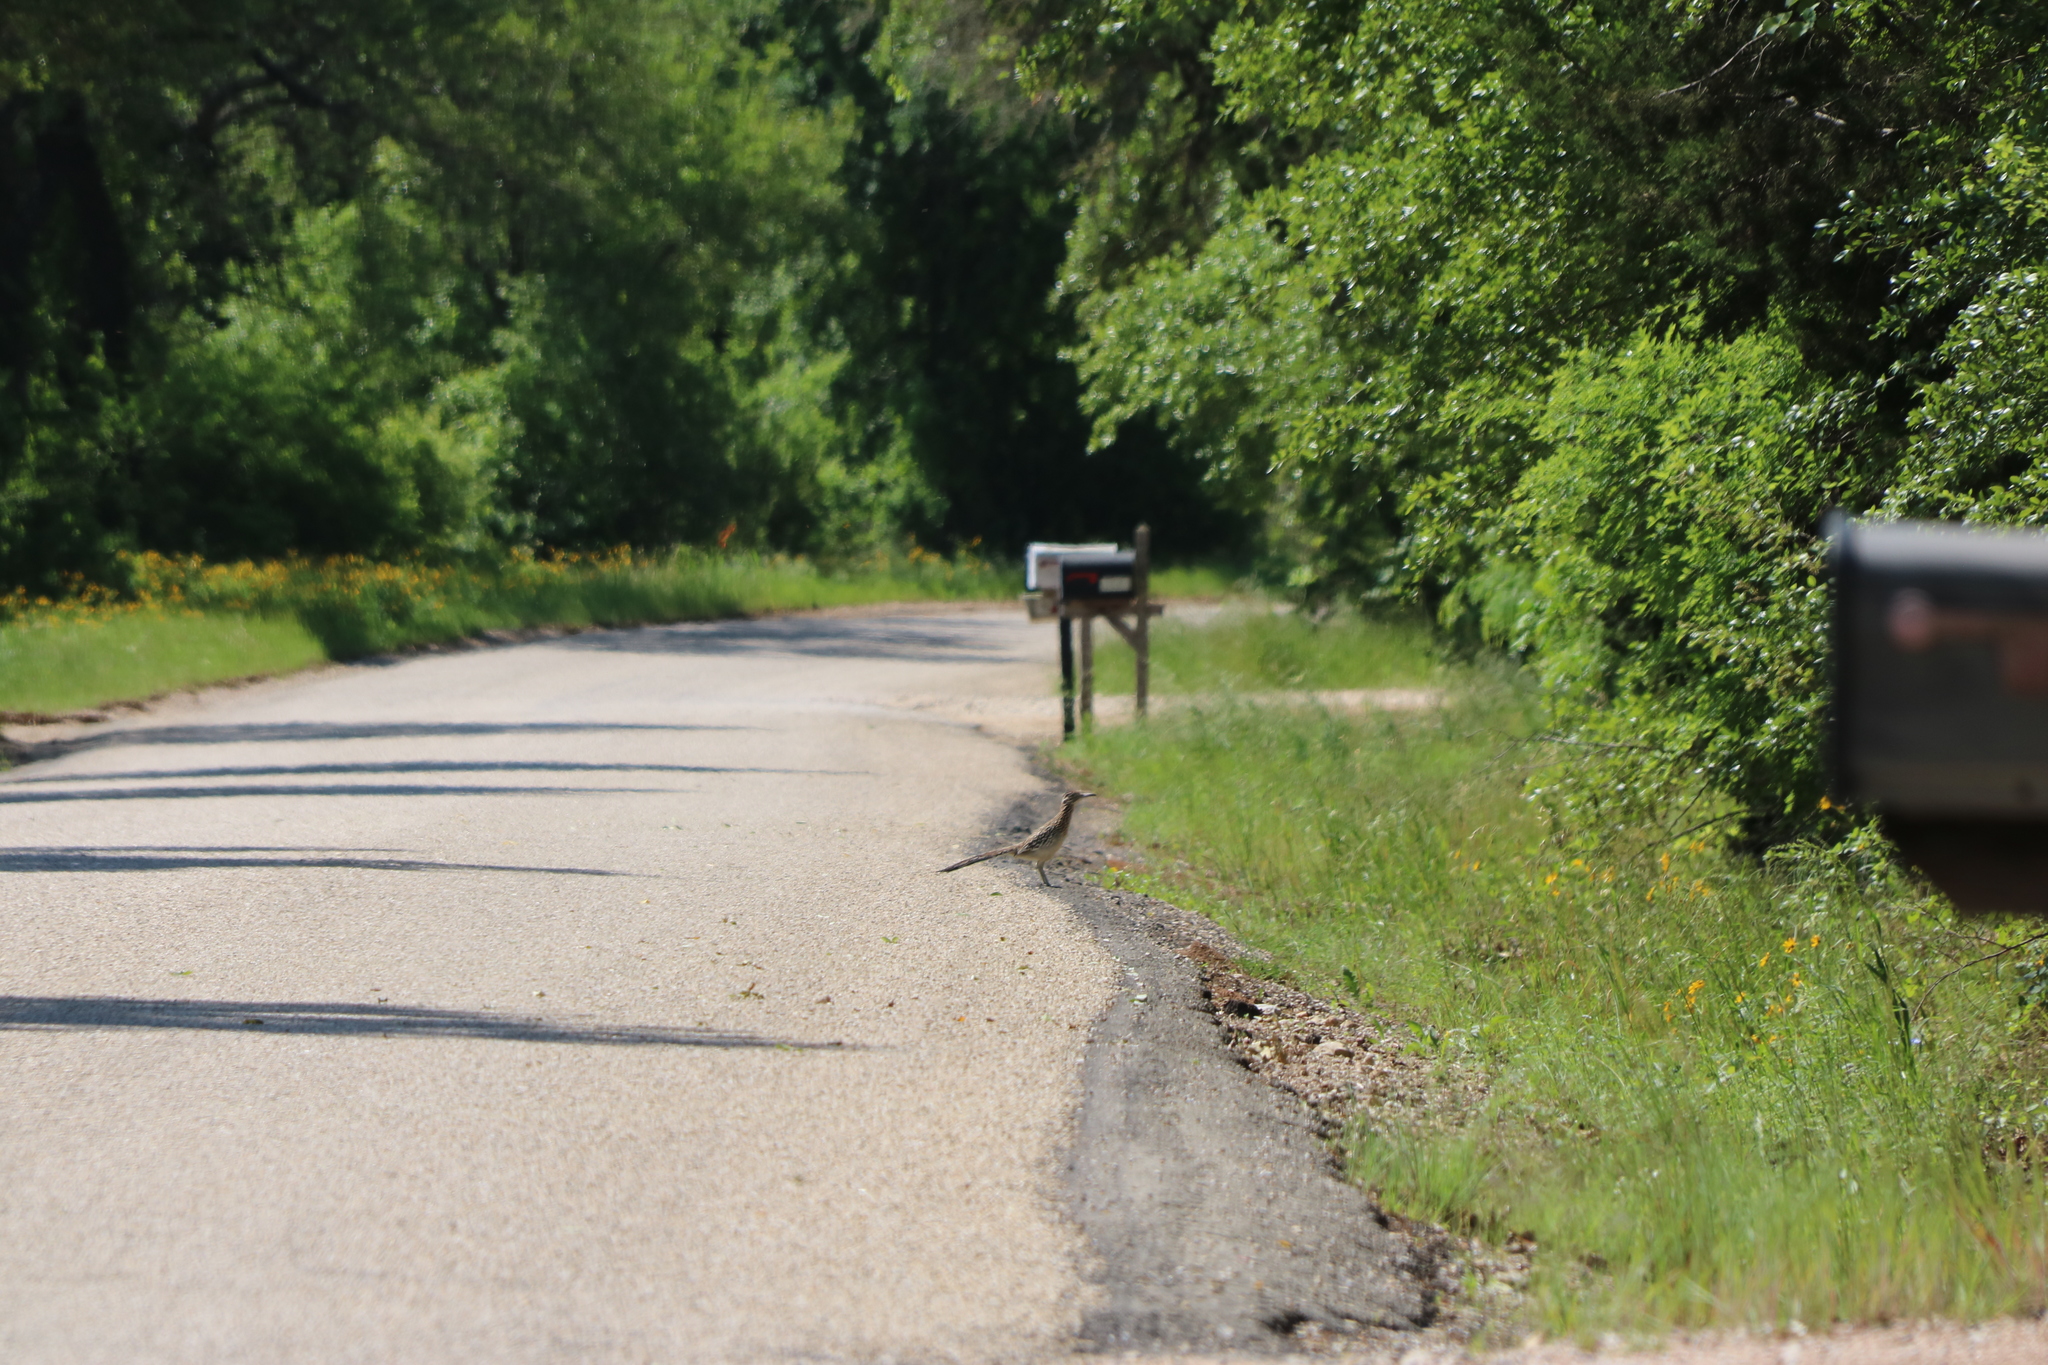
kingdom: Animalia
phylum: Chordata
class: Aves
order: Cuculiformes
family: Cuculidae
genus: Geococcyx
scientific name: Geococcyx californianus
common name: Greater roadrunner
